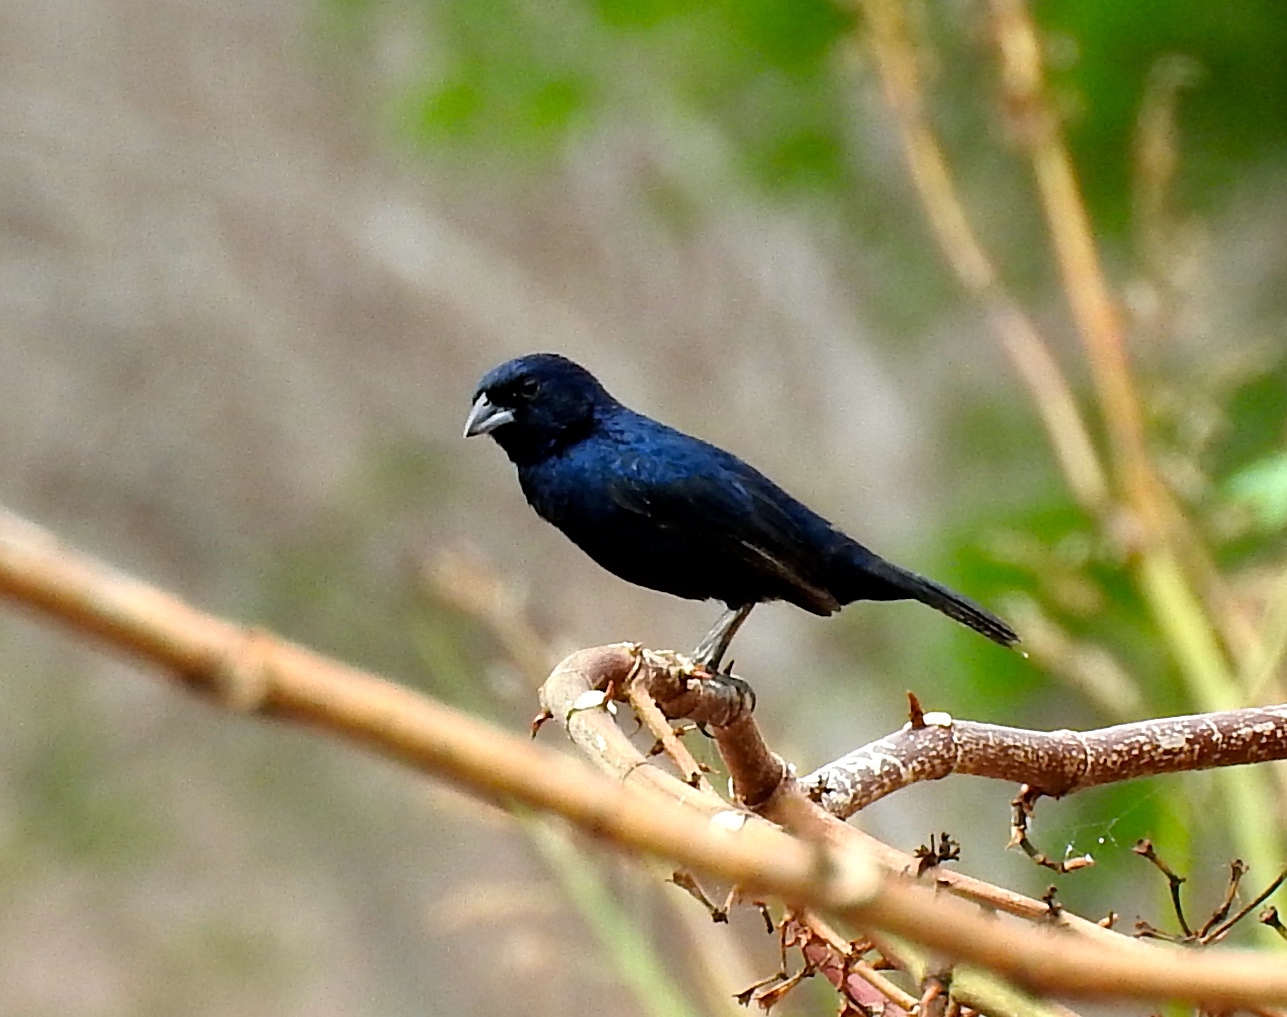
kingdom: Animalia
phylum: Chordata
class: Aves
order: Passeriformes
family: Thraupidae
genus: Volatinia
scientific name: Volatinia jacarina
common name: Blue-black grassquit
